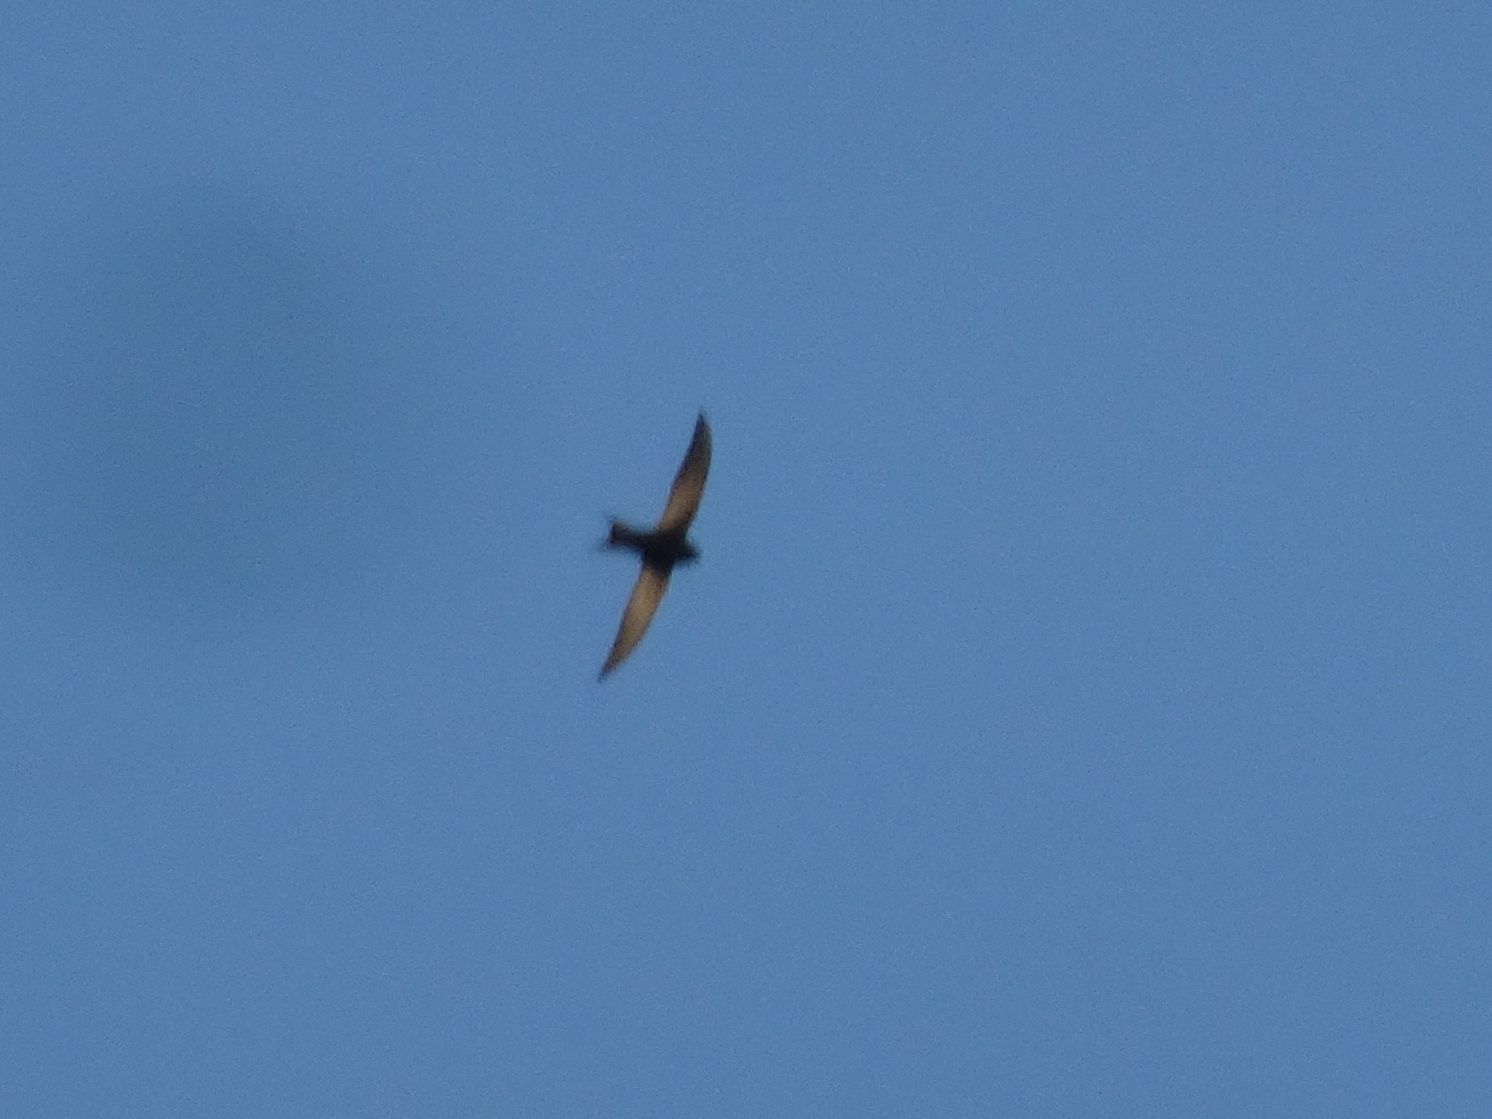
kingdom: Animalia
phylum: Chordata
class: Aves
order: Apodiformes
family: Apodidae
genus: Apus
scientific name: Apus barbatus
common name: African black swift
